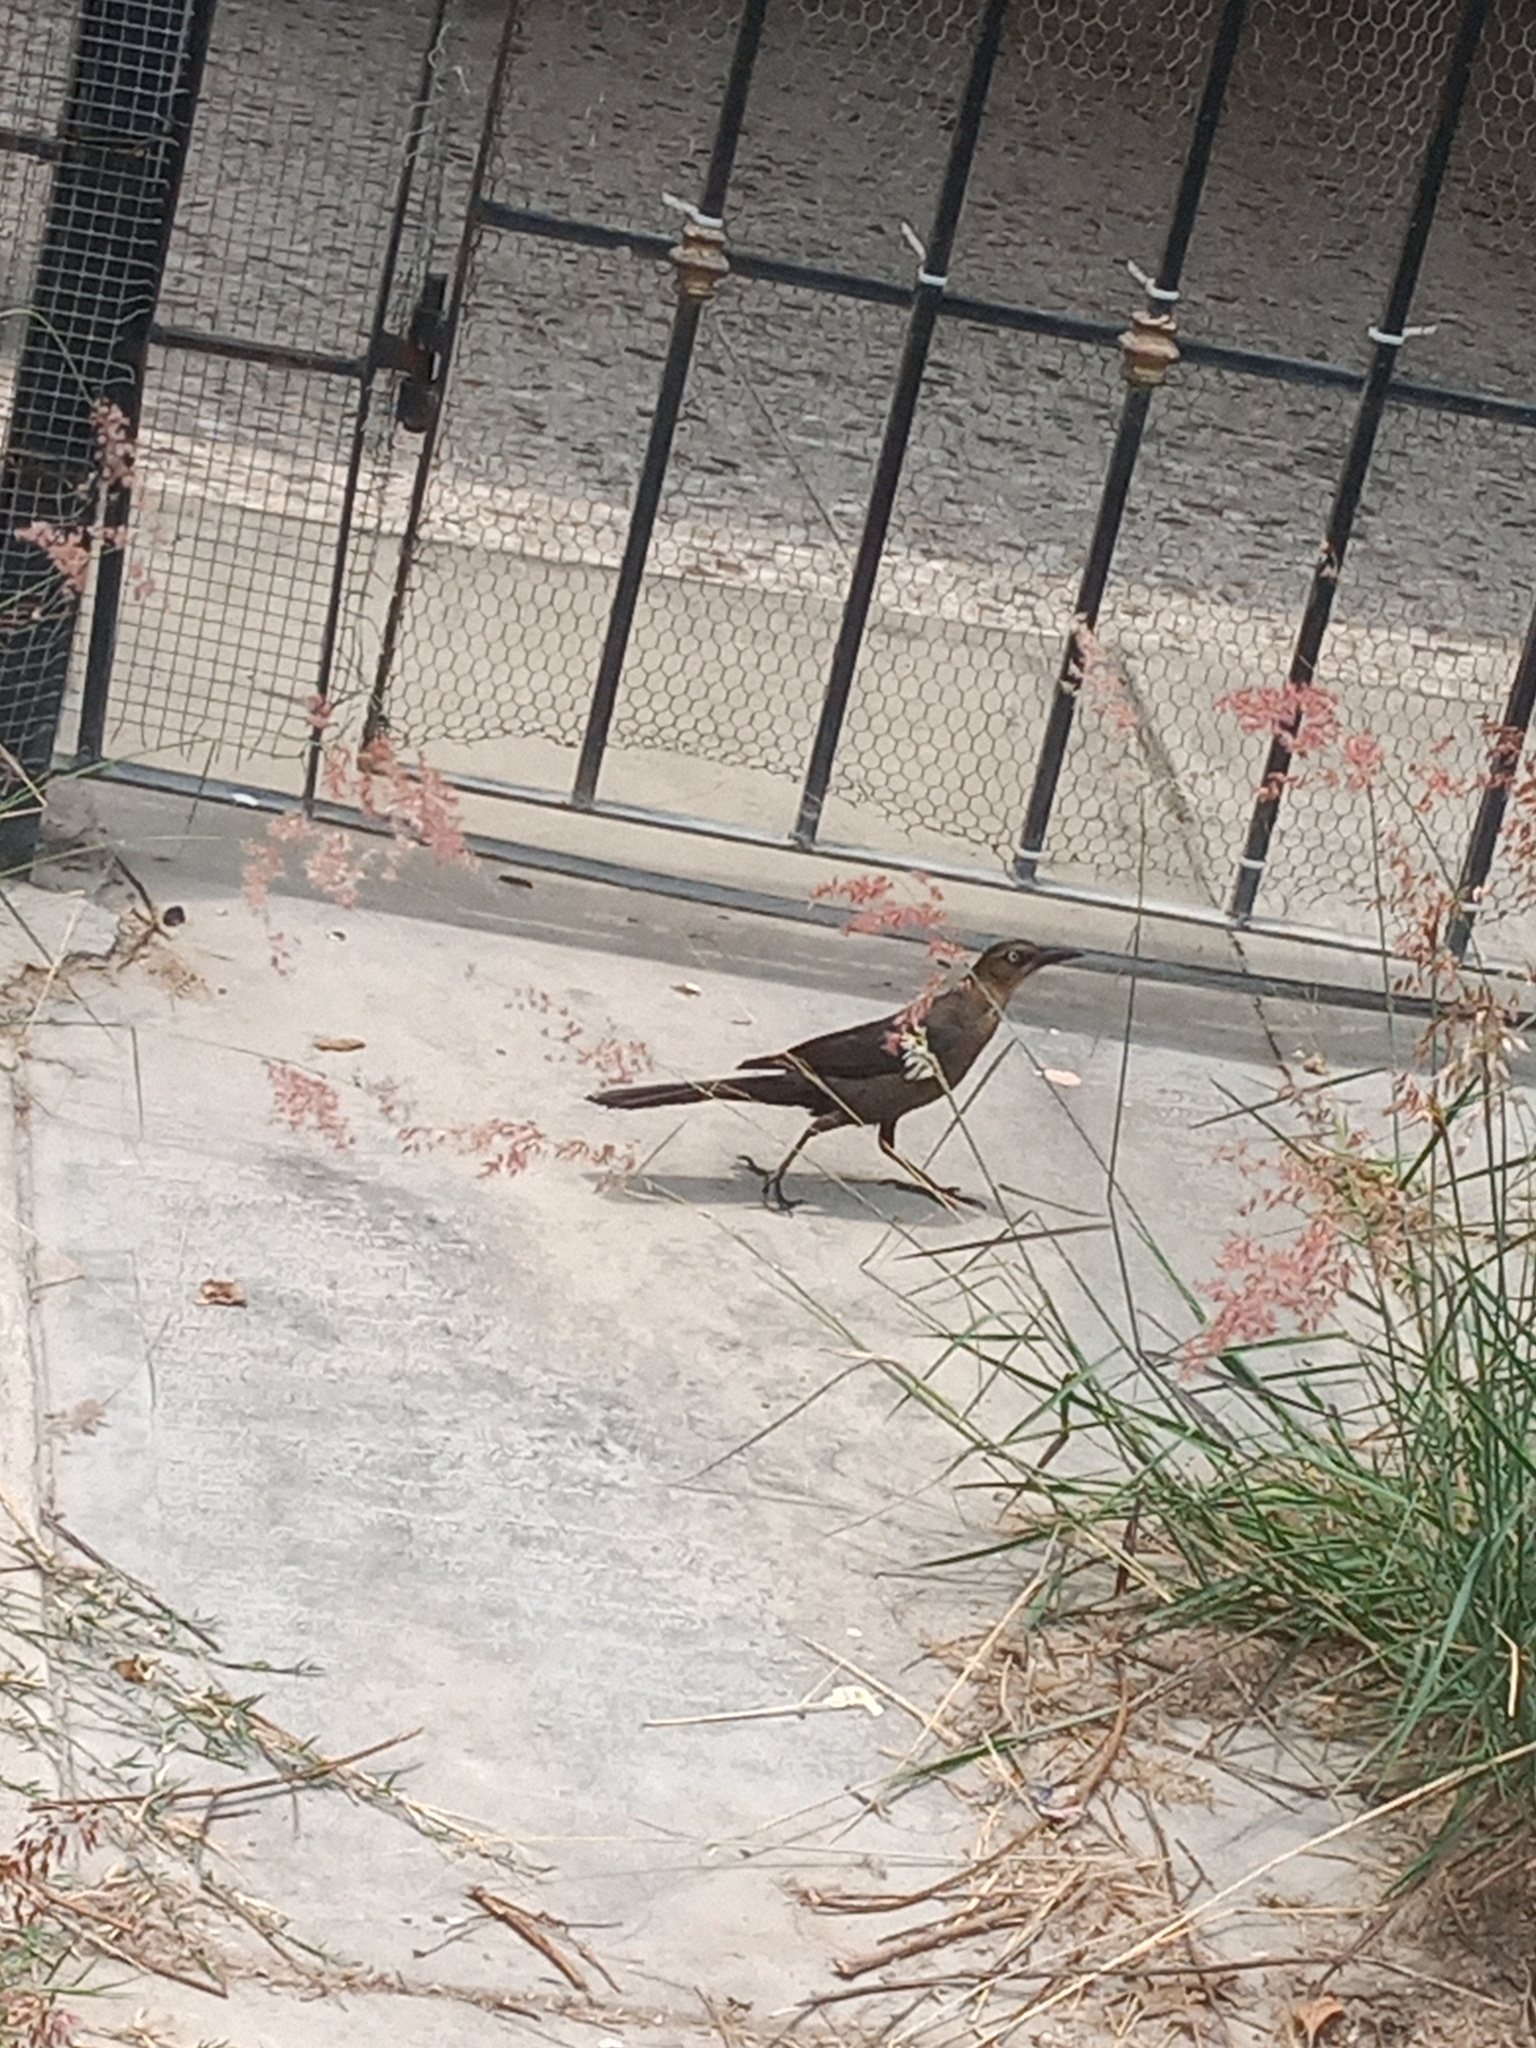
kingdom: Animalia
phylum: Chordata
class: Aves
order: Passeriformes
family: Icteridae
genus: Quiscalus
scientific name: Quiscalus mexicanus
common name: Great-tailed grackle
